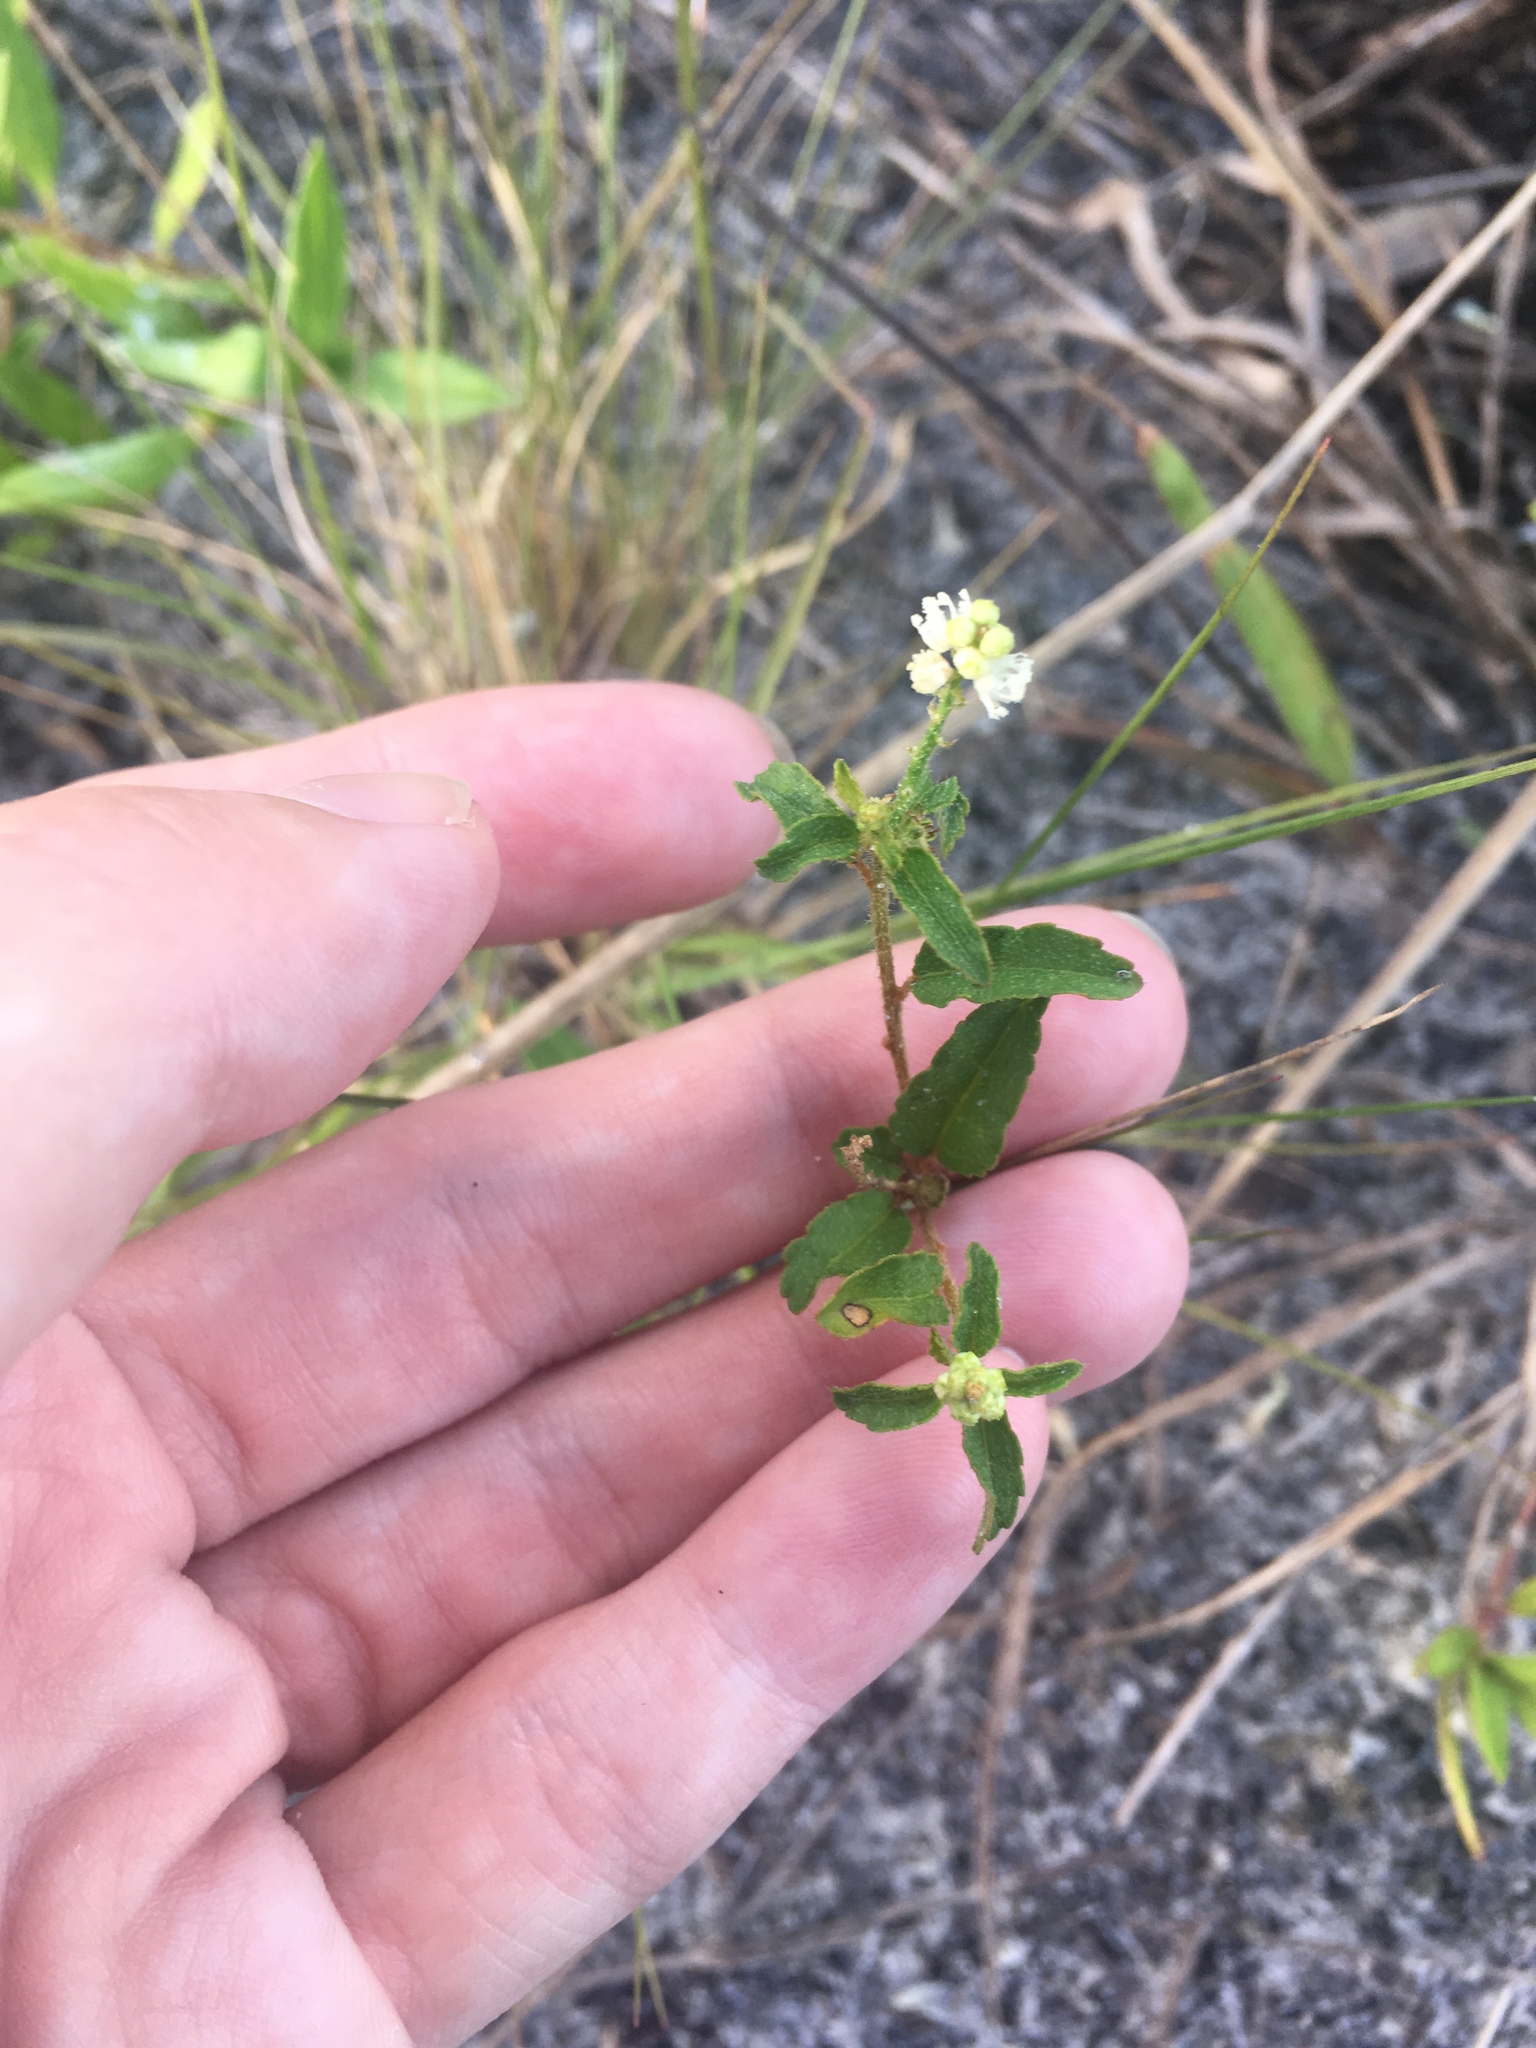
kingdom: Plantae
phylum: Tracheophyta
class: Magnoliopsida
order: Malpighiales
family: Euphorbiaceae
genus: Croton
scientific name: Croton glandulosus
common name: Tropic croton
